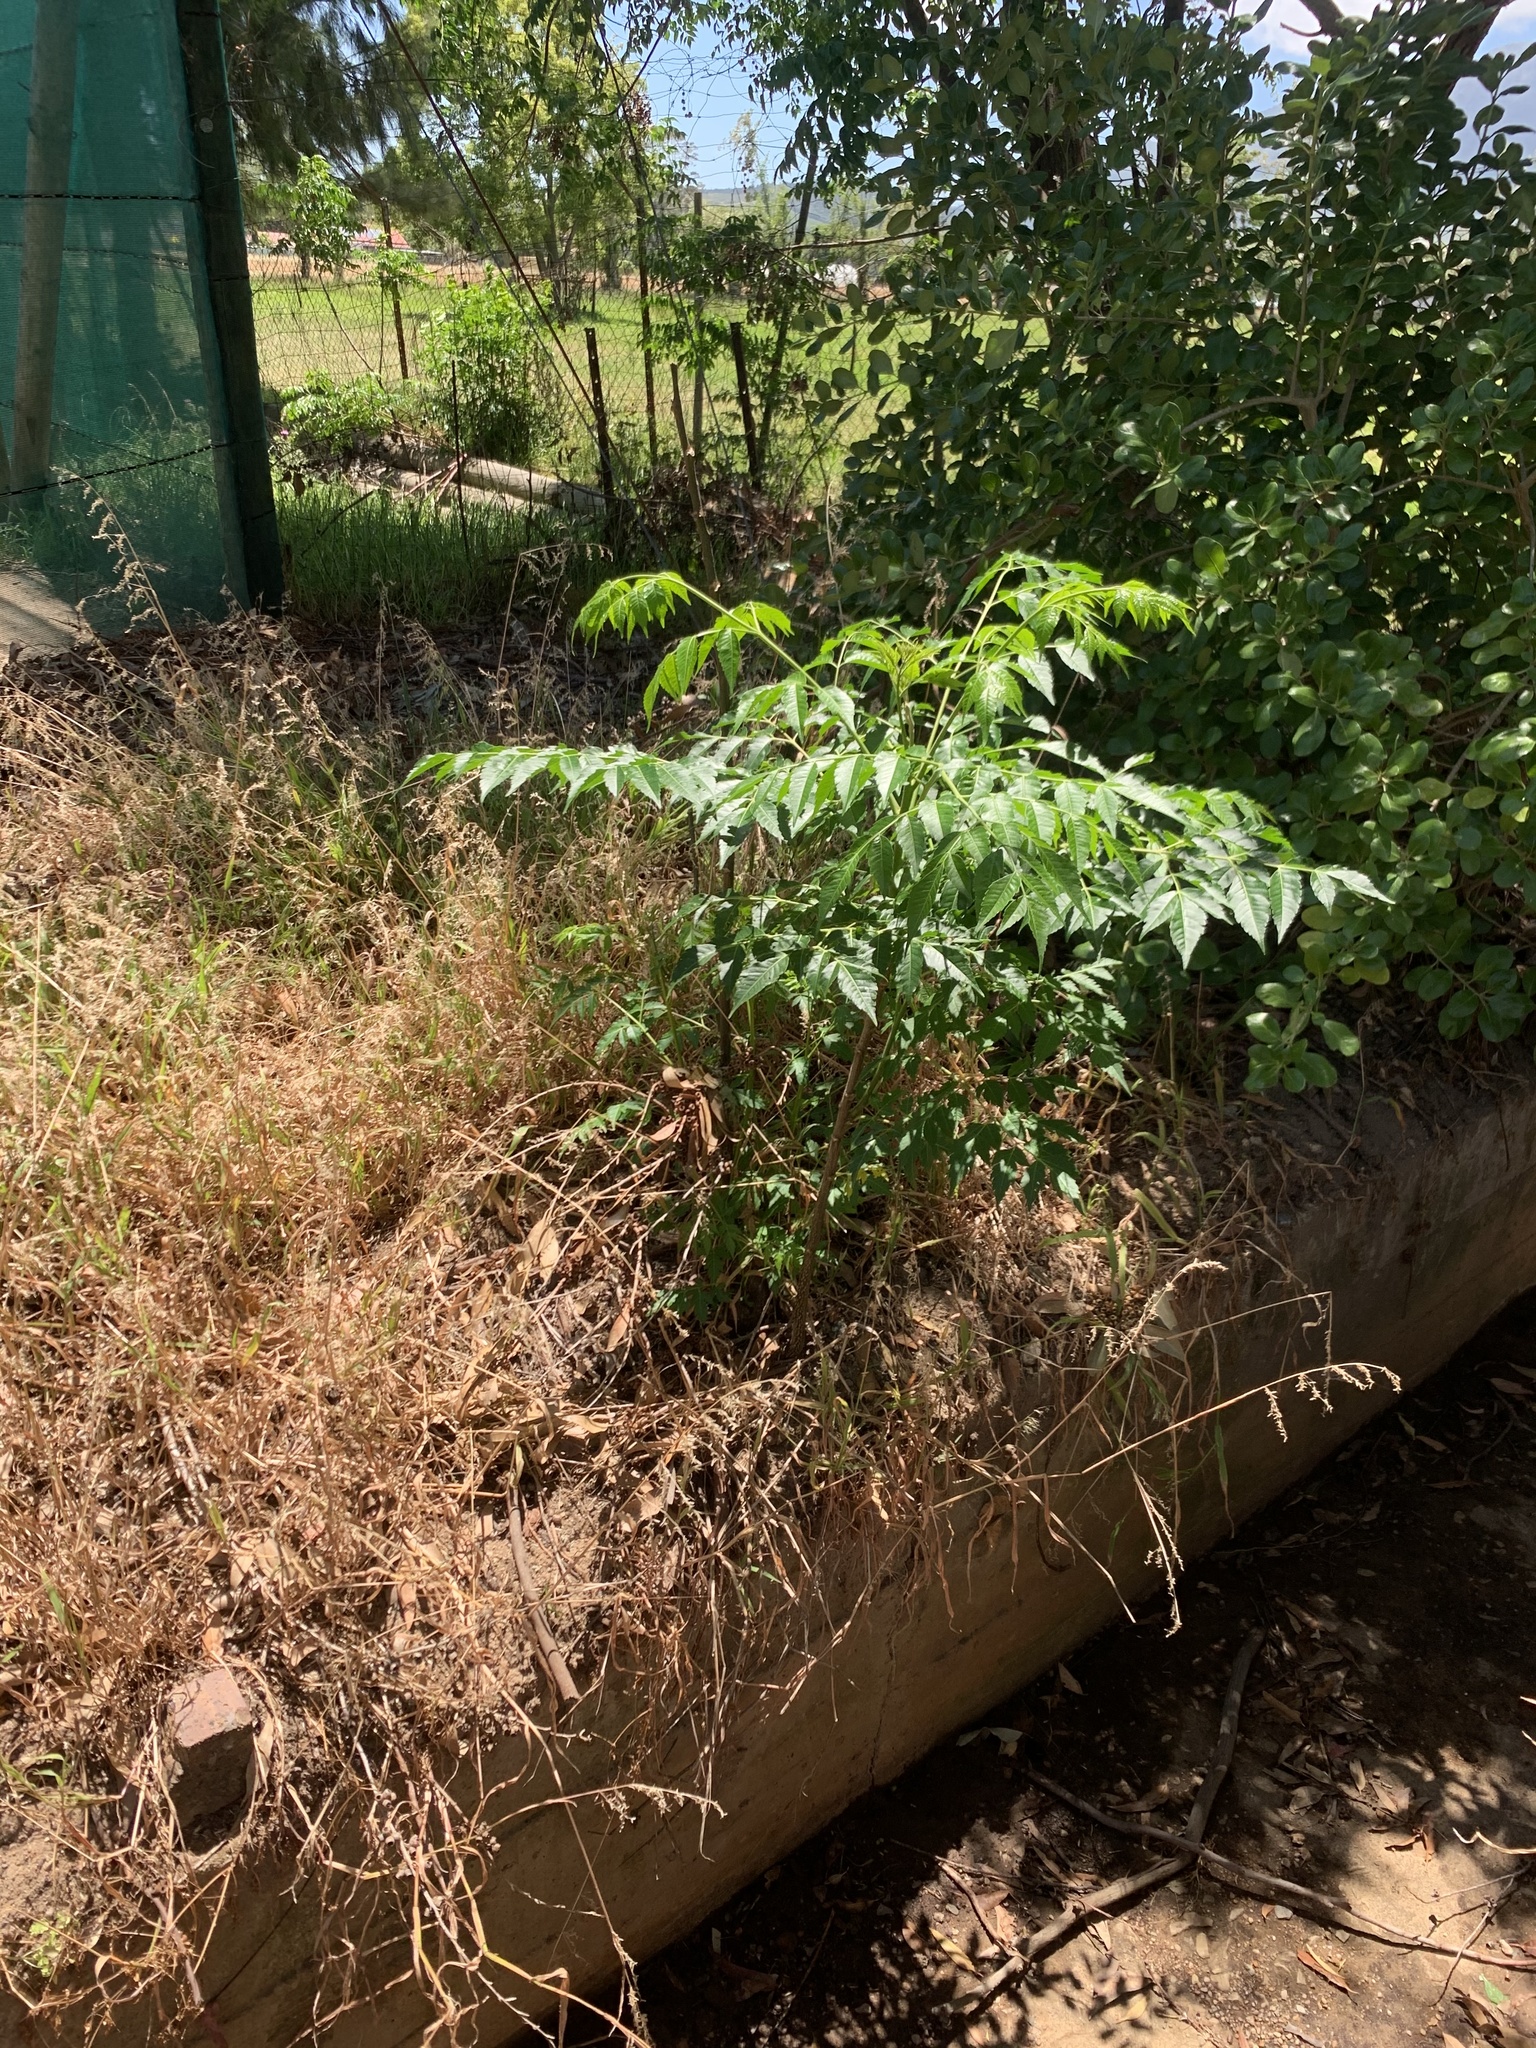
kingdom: Plantae
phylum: Tracheophyta
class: Magnoliopsida
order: Sapindales
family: Meliaceae
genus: Melia
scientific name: Melia azedarach
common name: Chinaberrytree
